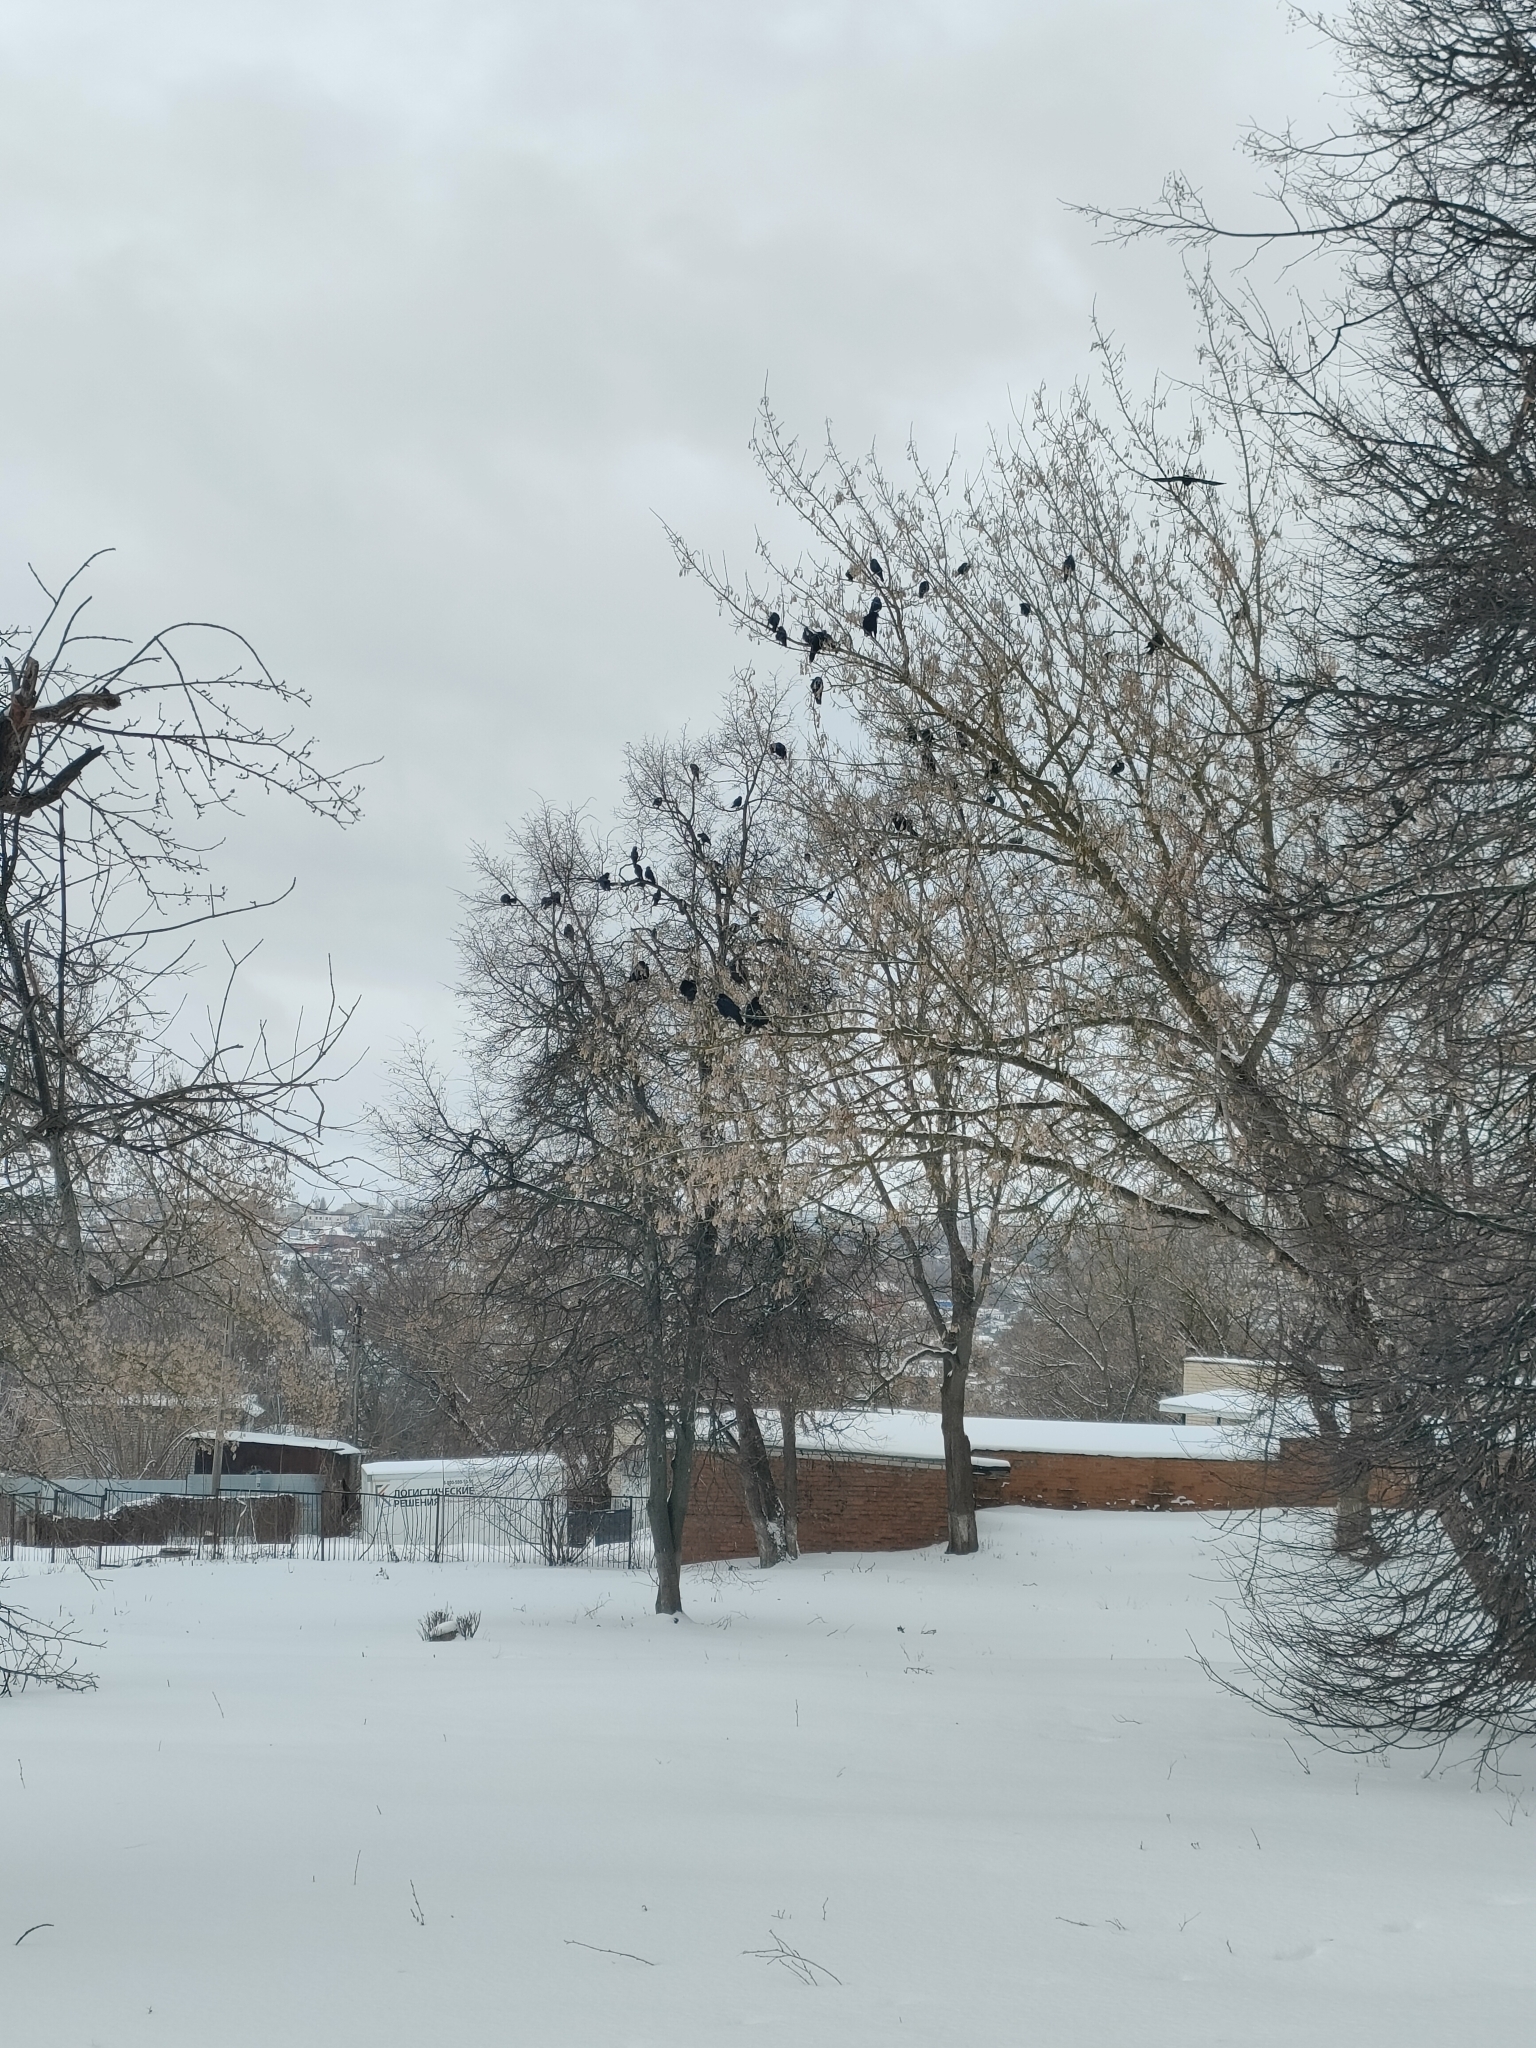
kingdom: Animalia
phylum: Chordata
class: Aves
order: Passeriformes
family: Corvidae
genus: Corvus
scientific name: Corvus frugilegus
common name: Rook
